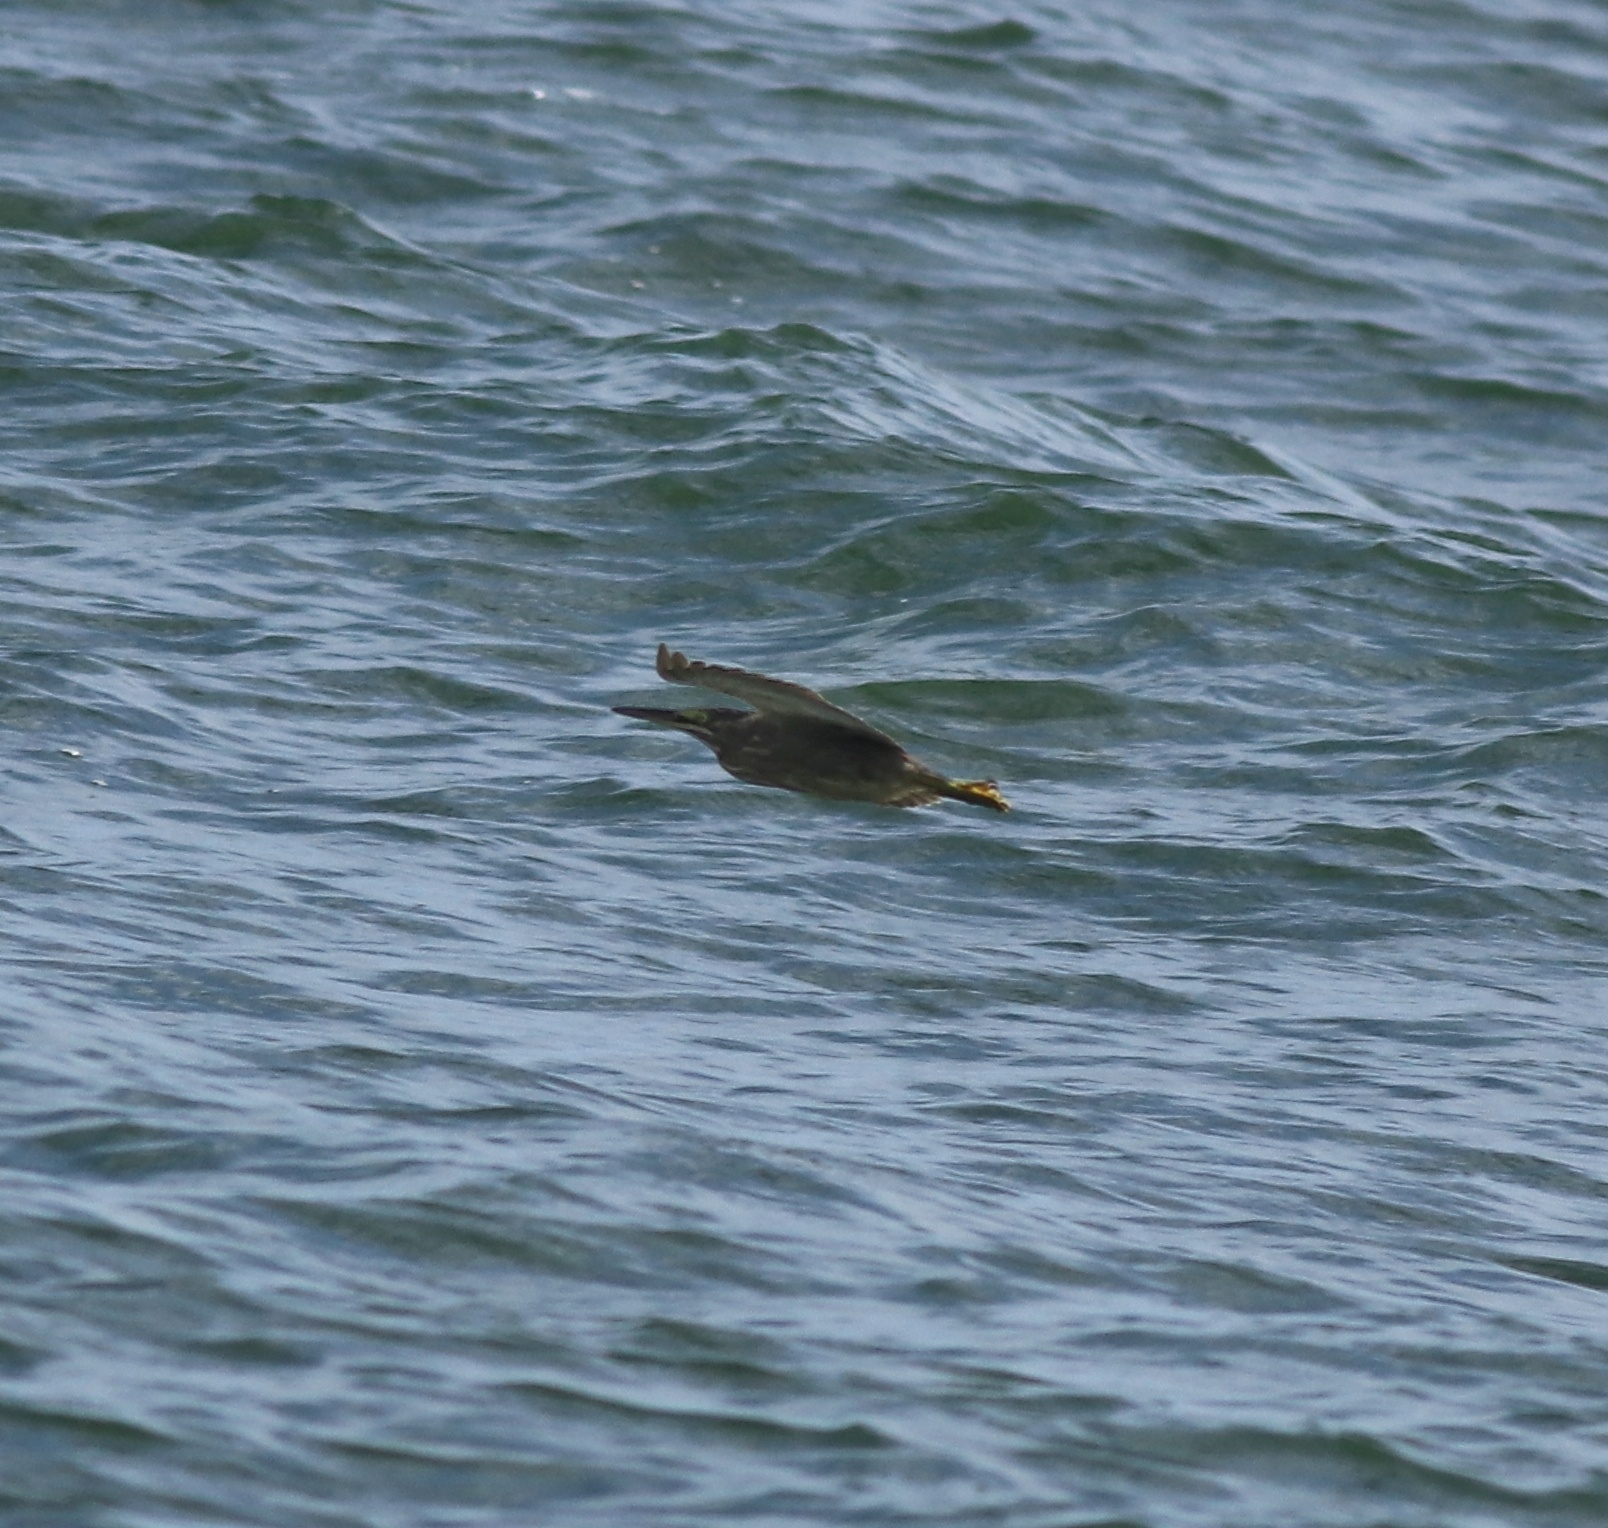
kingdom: Animalia
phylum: Chordata
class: Aves
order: Pelecaniformes
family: Ardeidae
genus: Butorides
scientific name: Butorides striata
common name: Striated heron
